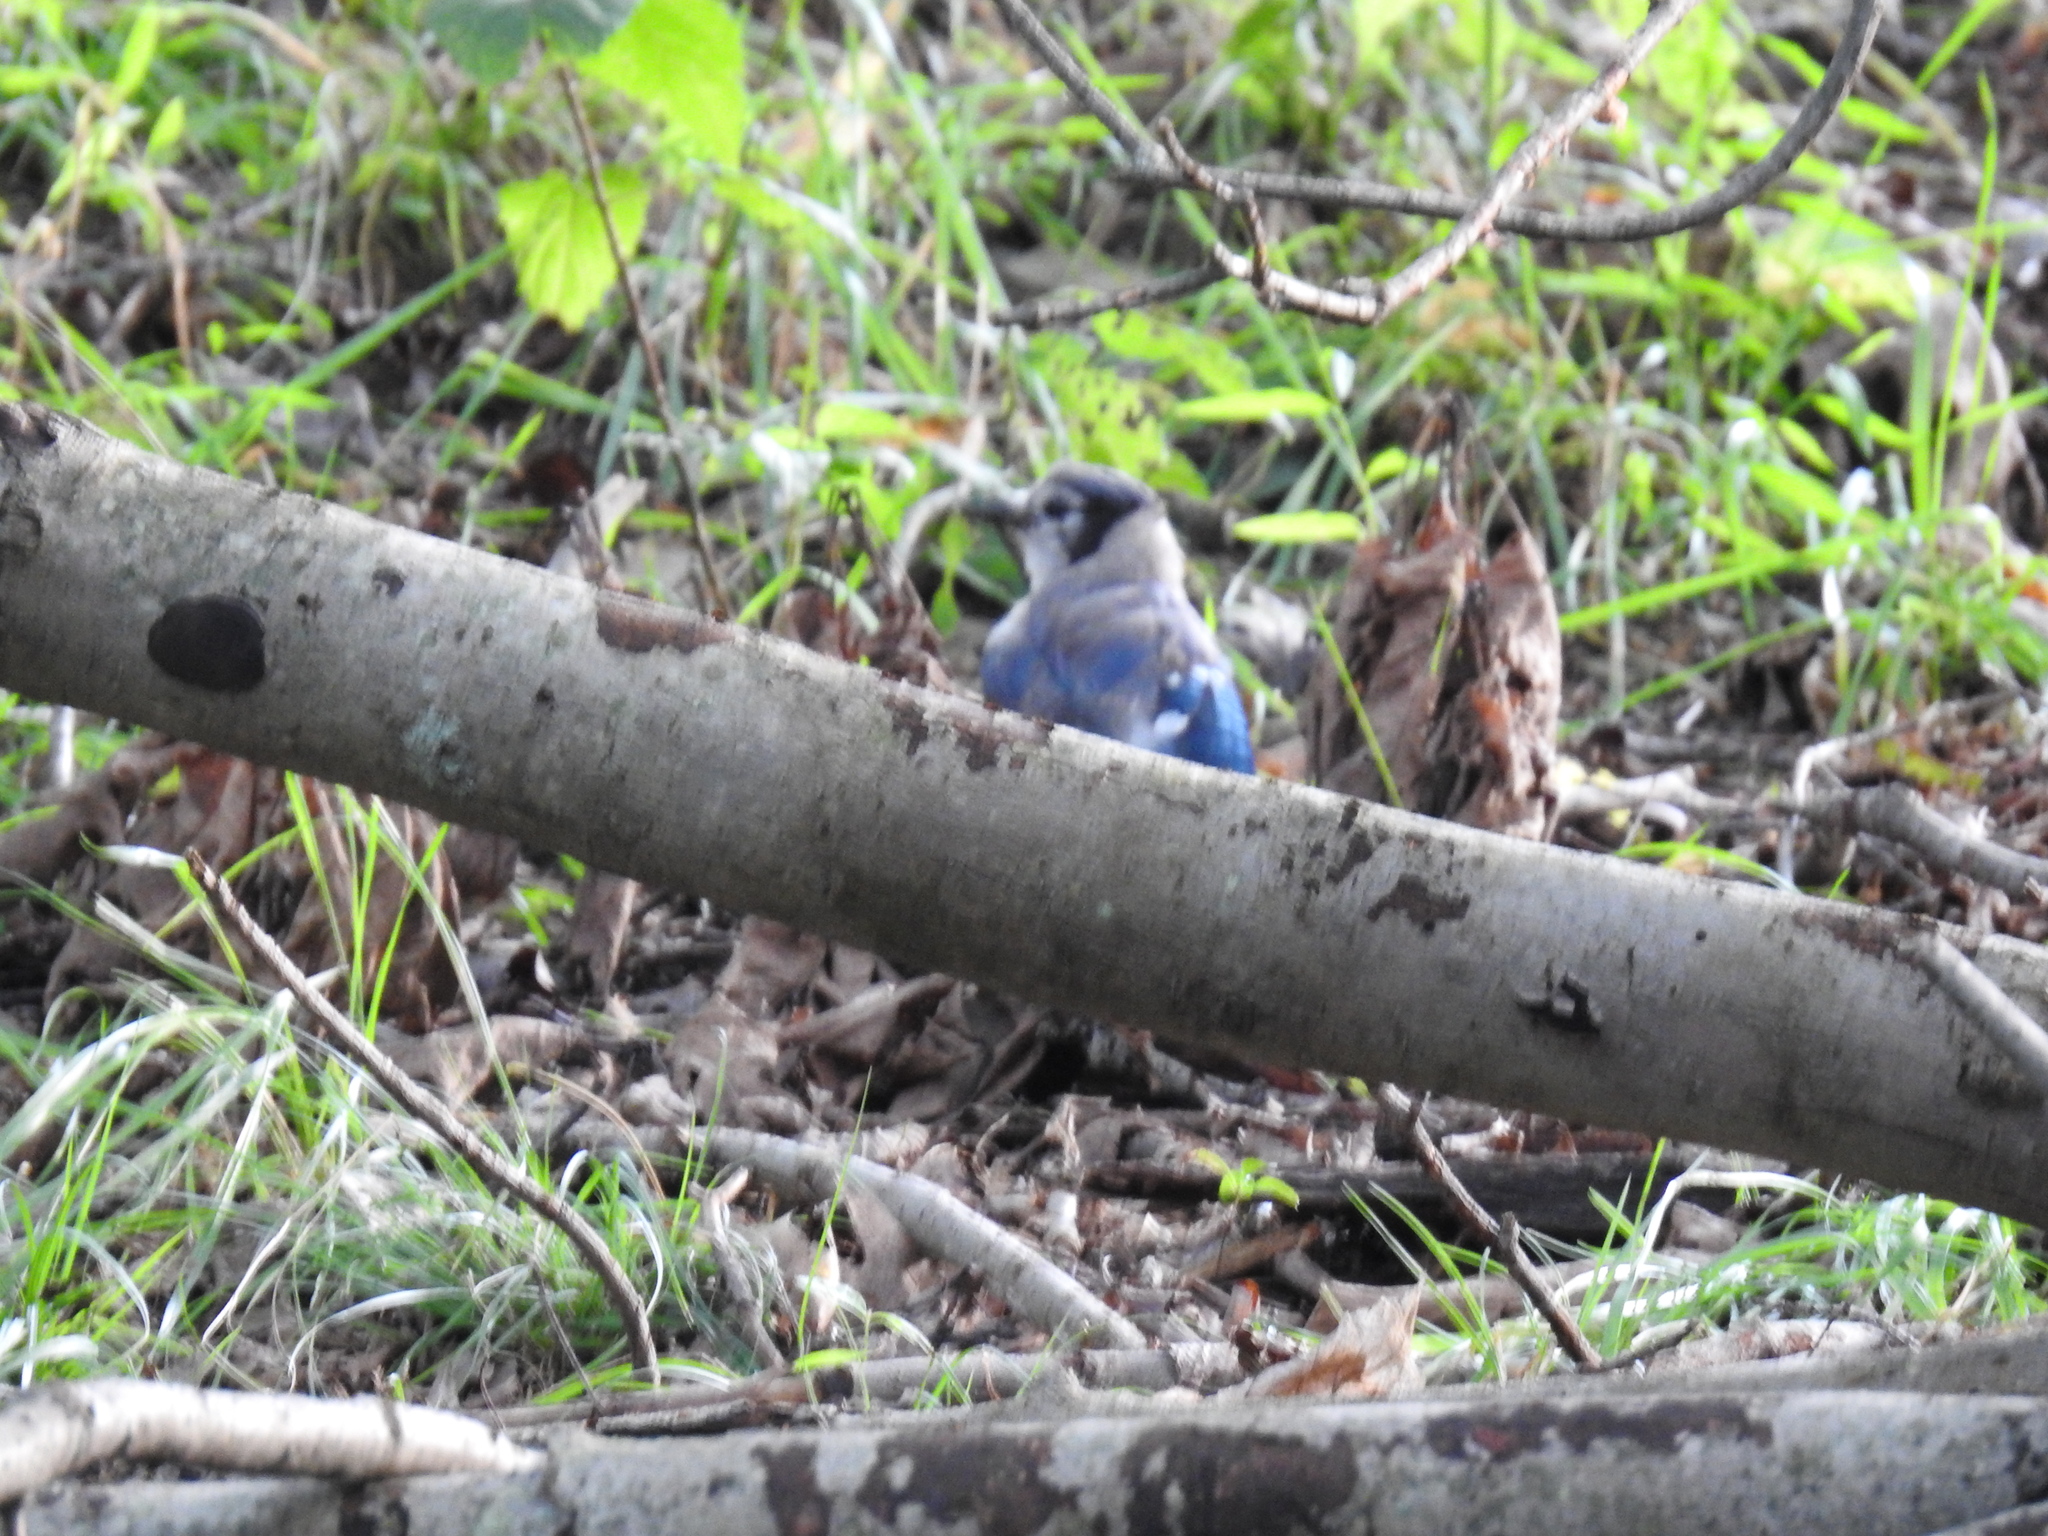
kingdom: Animalia
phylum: Chordata
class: Aves
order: Passeriformes
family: Corvidae
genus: Cyanocitta
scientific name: Cyanocitta cristata
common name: Blue jay
